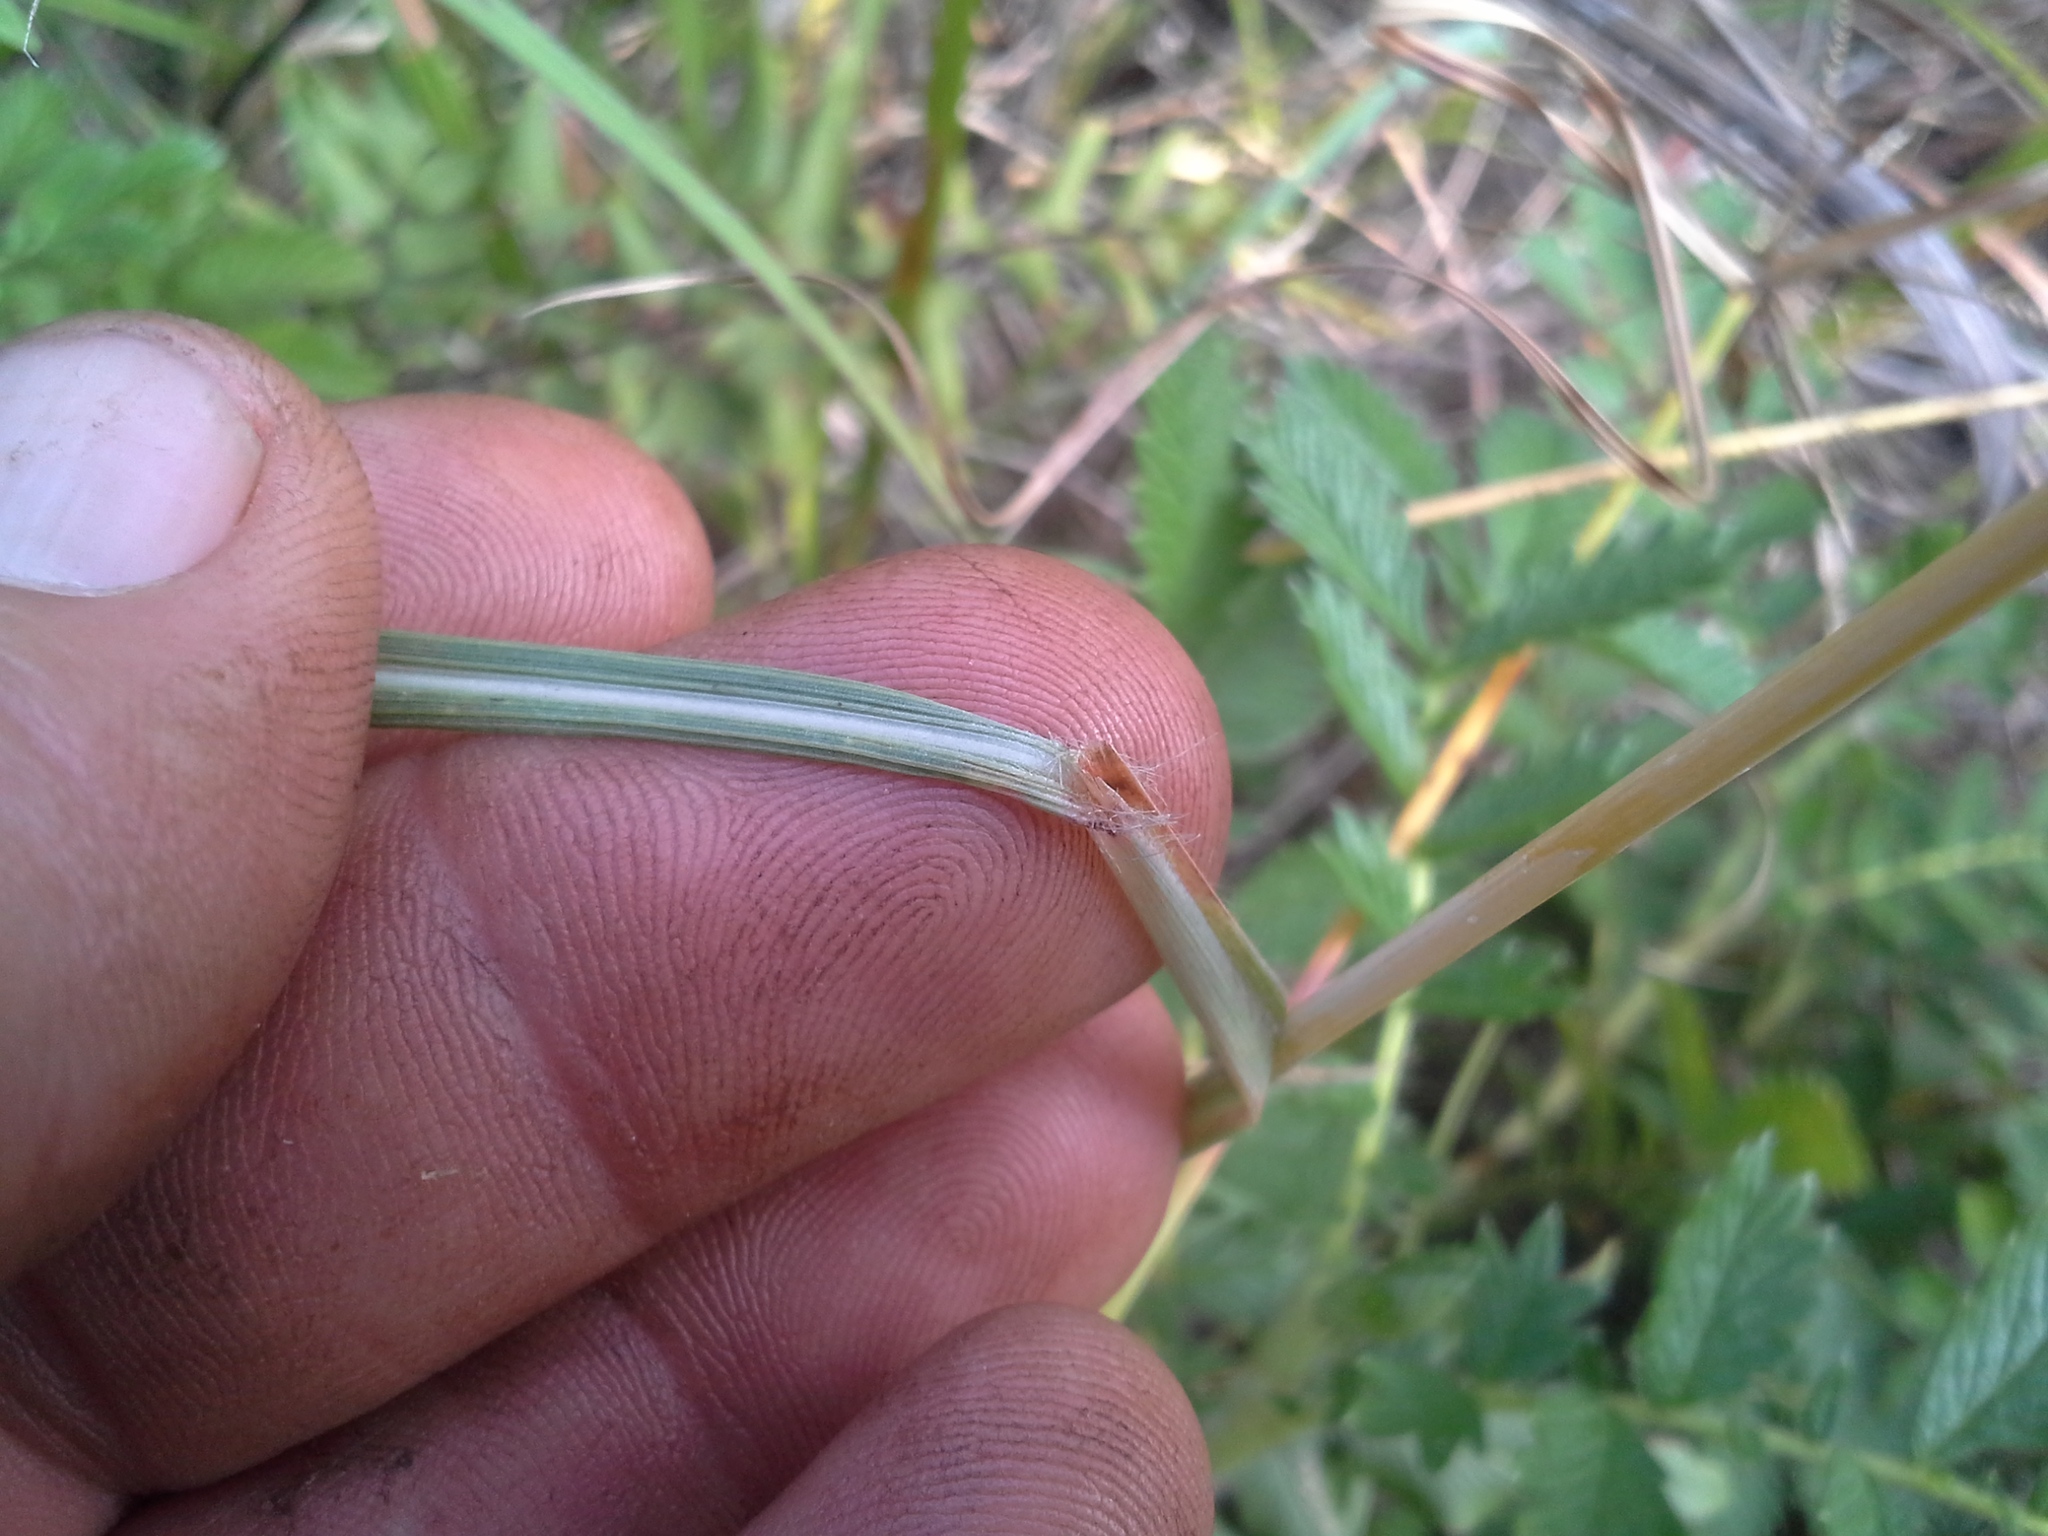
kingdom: Plantae
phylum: Tracheophyta
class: Liliopsida
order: Poales
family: Poaceae
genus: Hyparrhenia
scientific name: Hyparrhenia hirta
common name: Thatching grass
